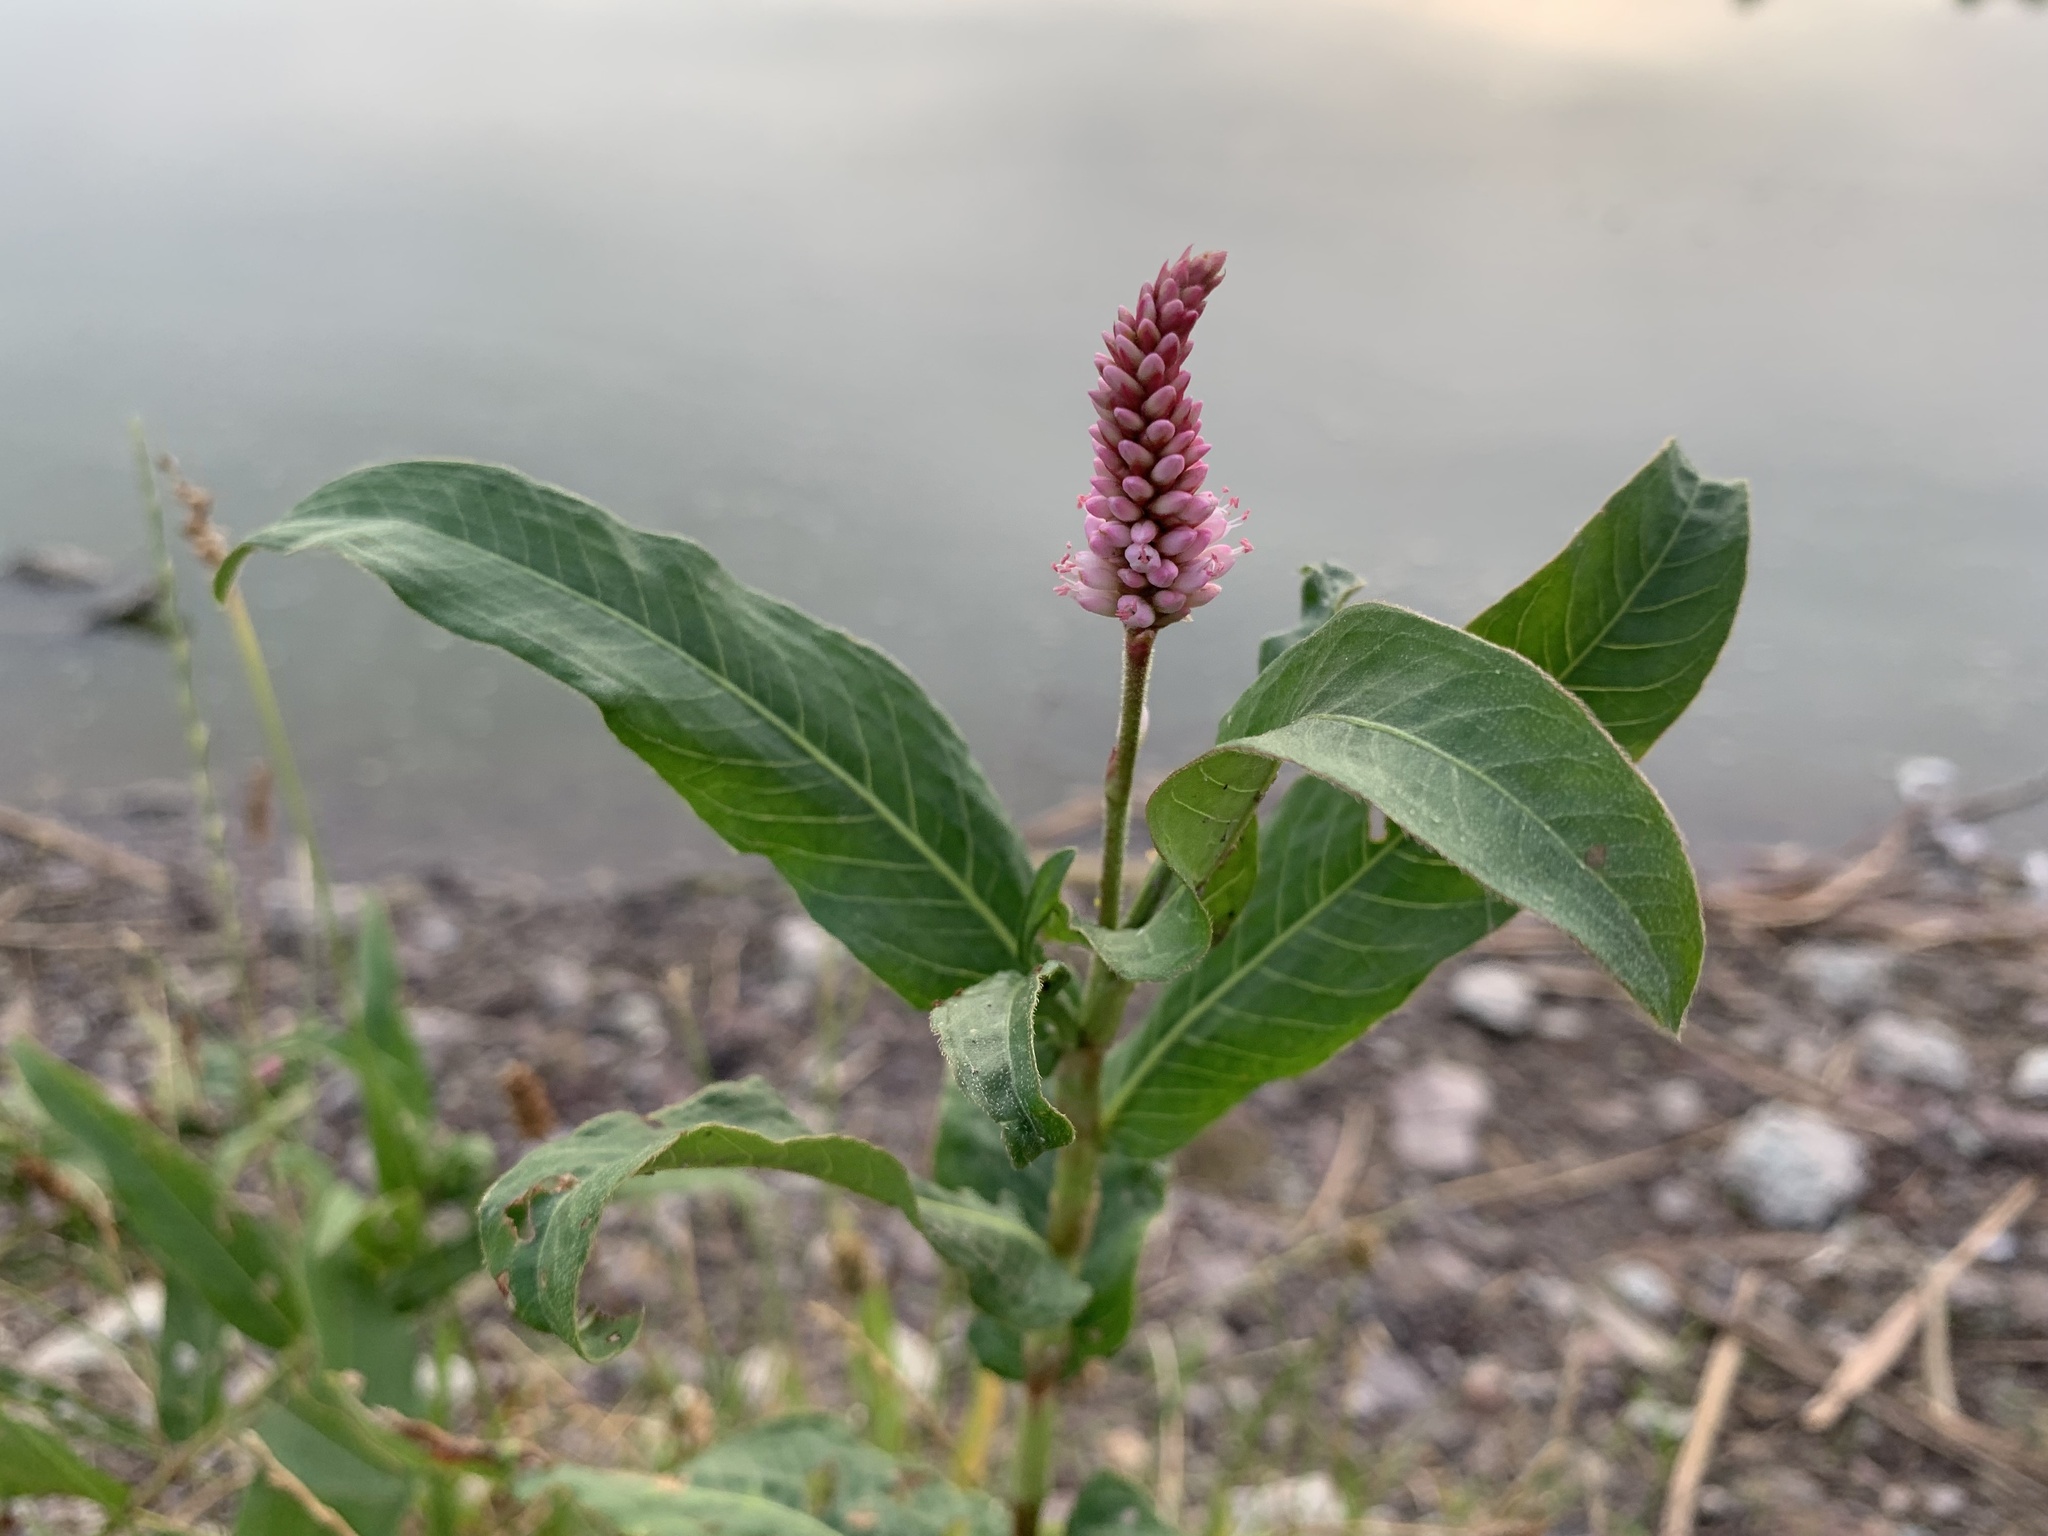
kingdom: Plantae
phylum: Tracheophyta
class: Magnoliopsida
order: Caryophyllales
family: Polygonaceae
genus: Persicaria
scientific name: Persicaria amphibia
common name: Amphibious bistort
